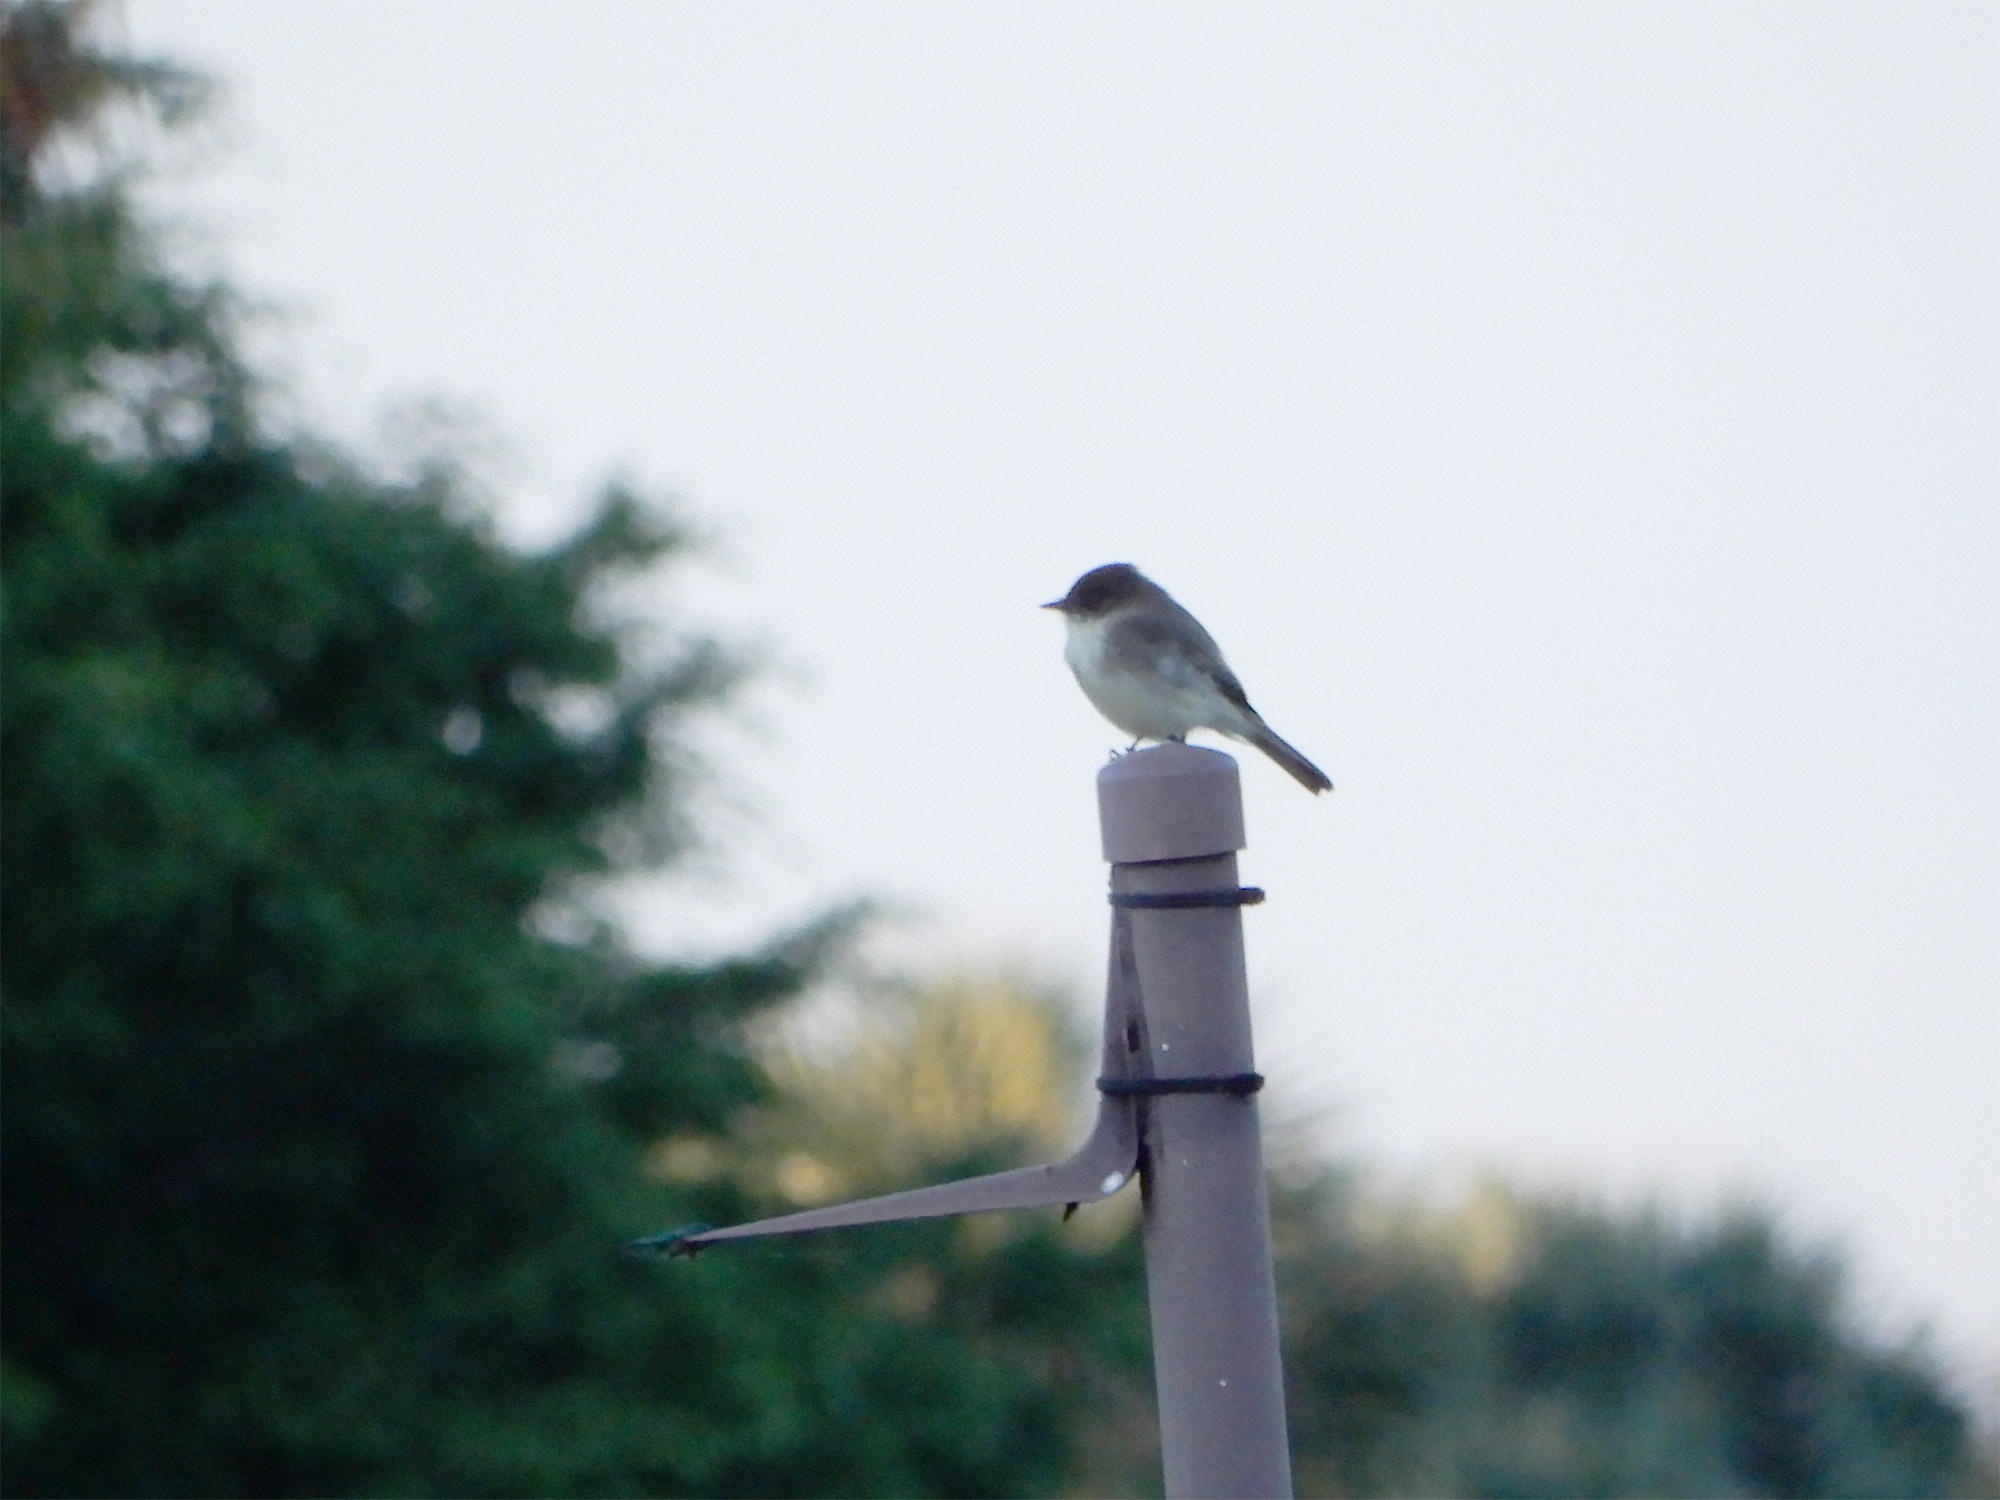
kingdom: Animalia
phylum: Chordata
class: Aves
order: Passeriformes
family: Tyrannidae
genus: Sayornis
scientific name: Sayornis phoebe
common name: Eastern phoebe
